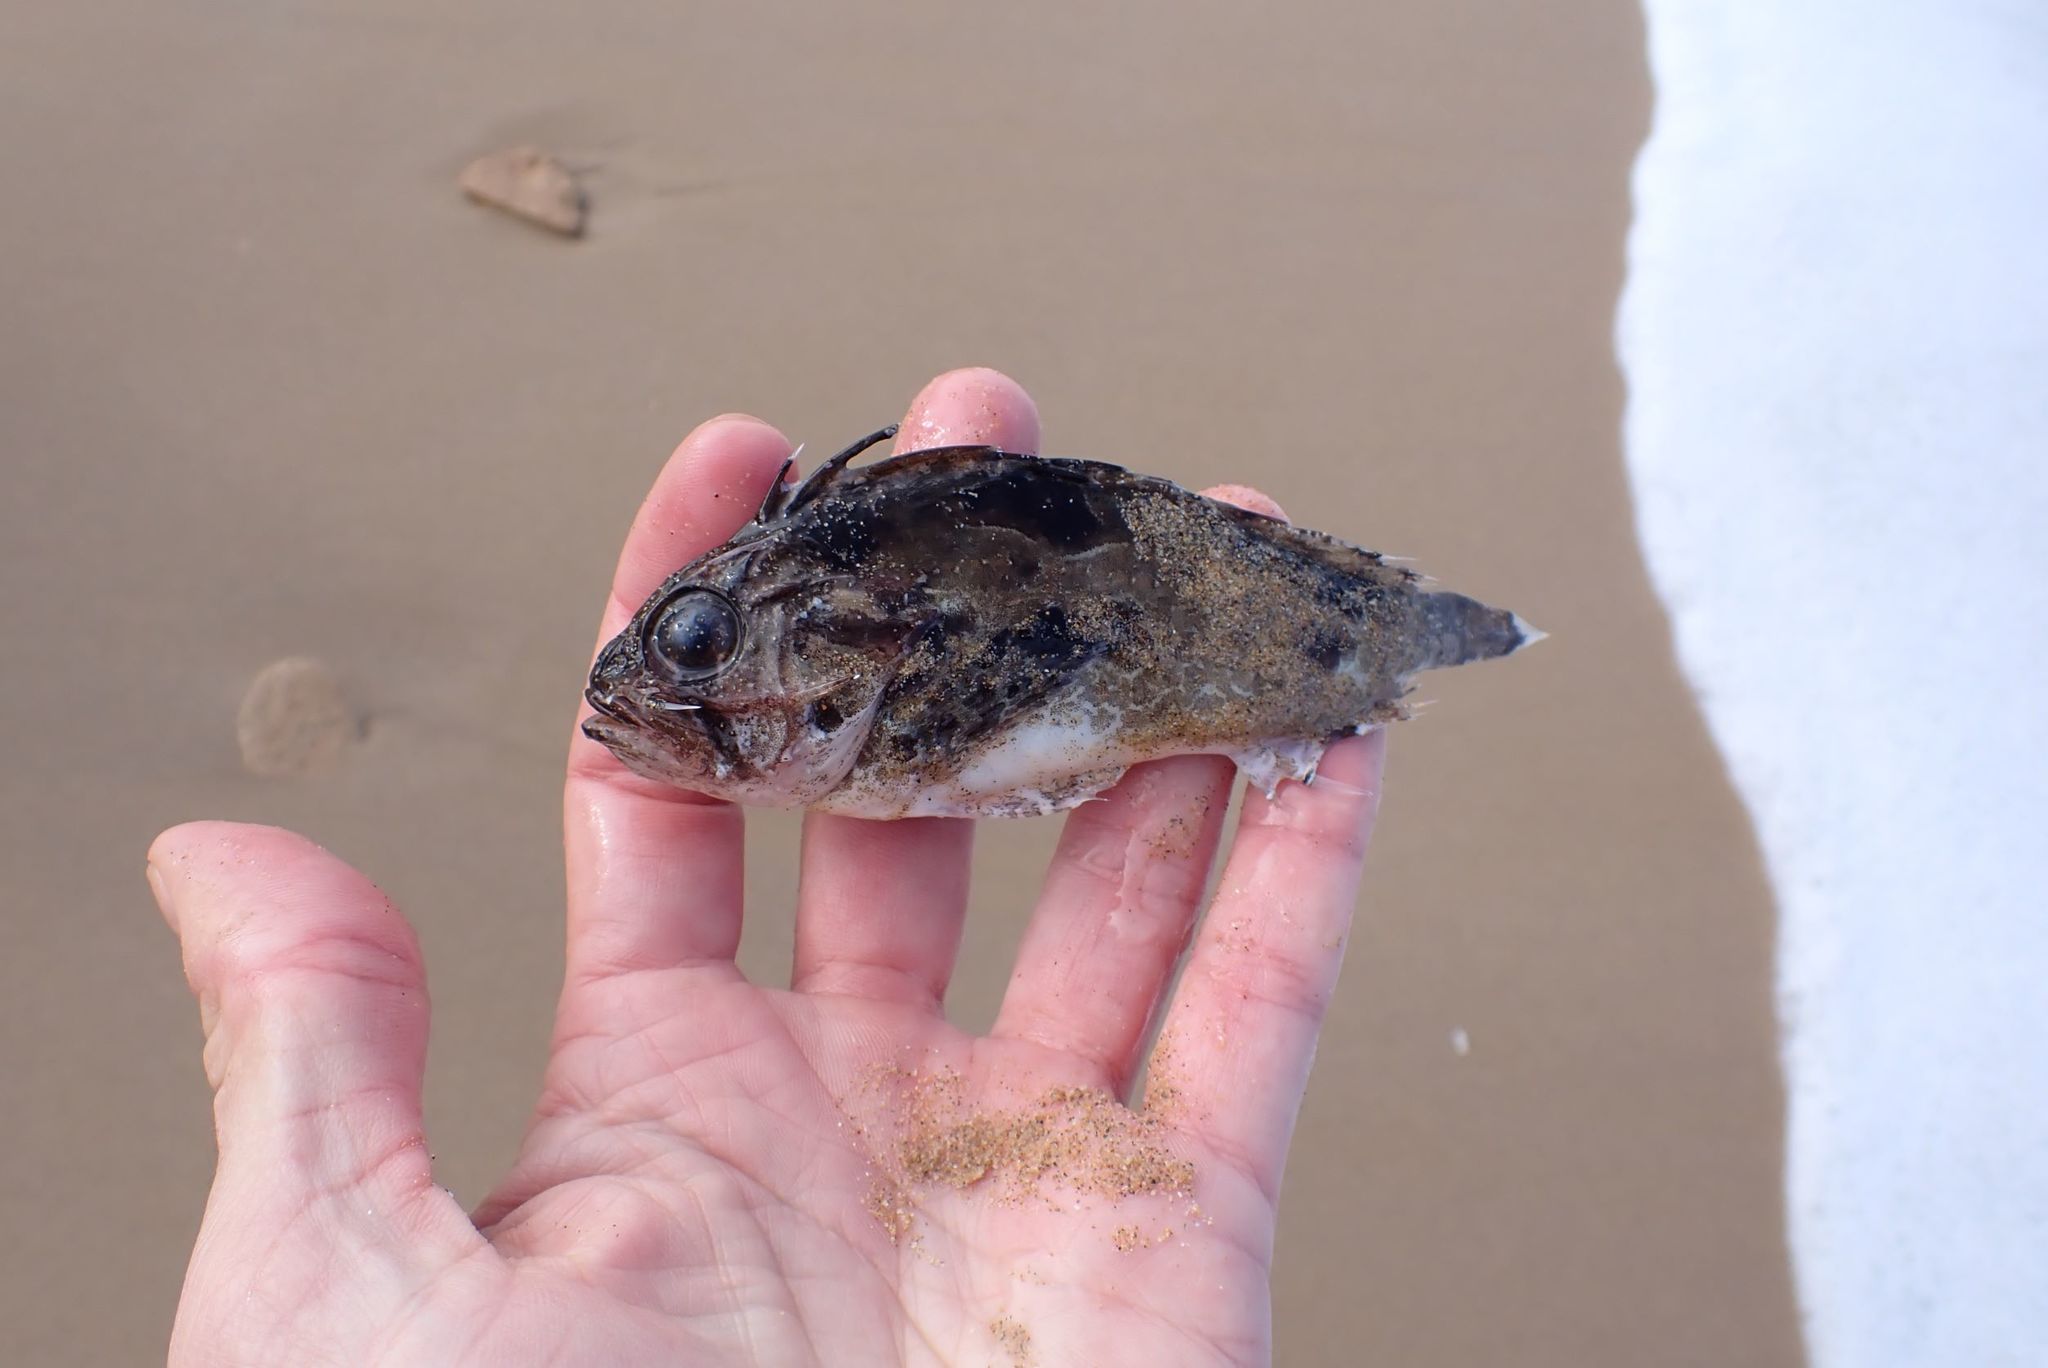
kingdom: Animalia
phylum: Chordata
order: Scorpaeniformes
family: Tetrarogidae
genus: Gymnapistes
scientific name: Gymnapistes marmoratus
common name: South australian cobbler
